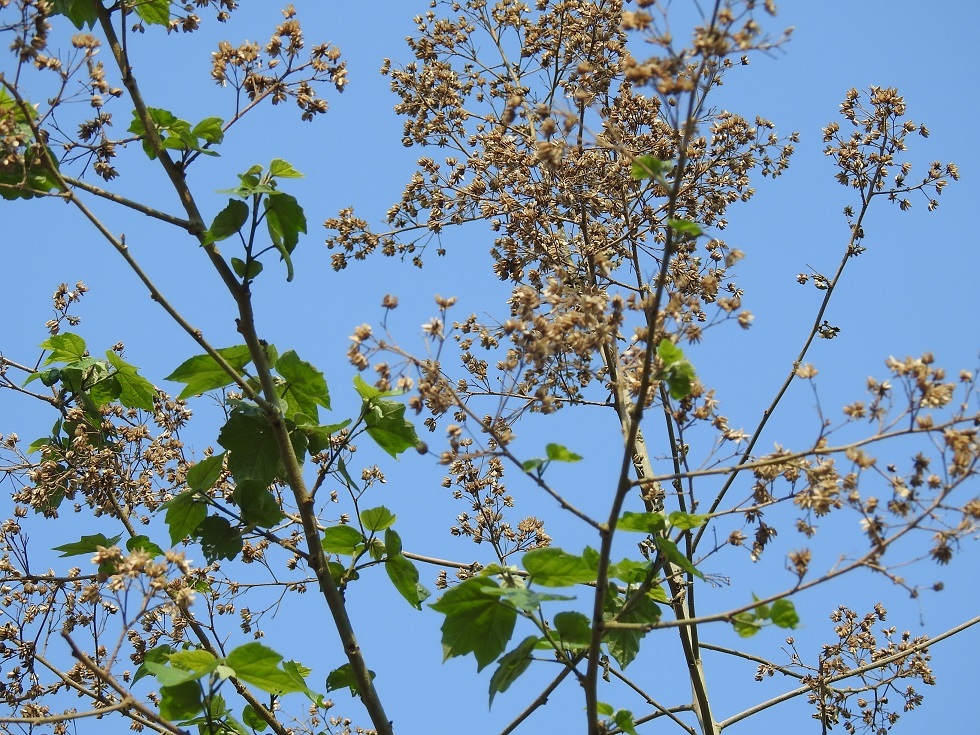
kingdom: Plantae
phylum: Tracheophyta
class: Magnoliopsida
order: Asterales
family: Asteraceae
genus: Montanoa
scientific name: Montanoa hexagona
